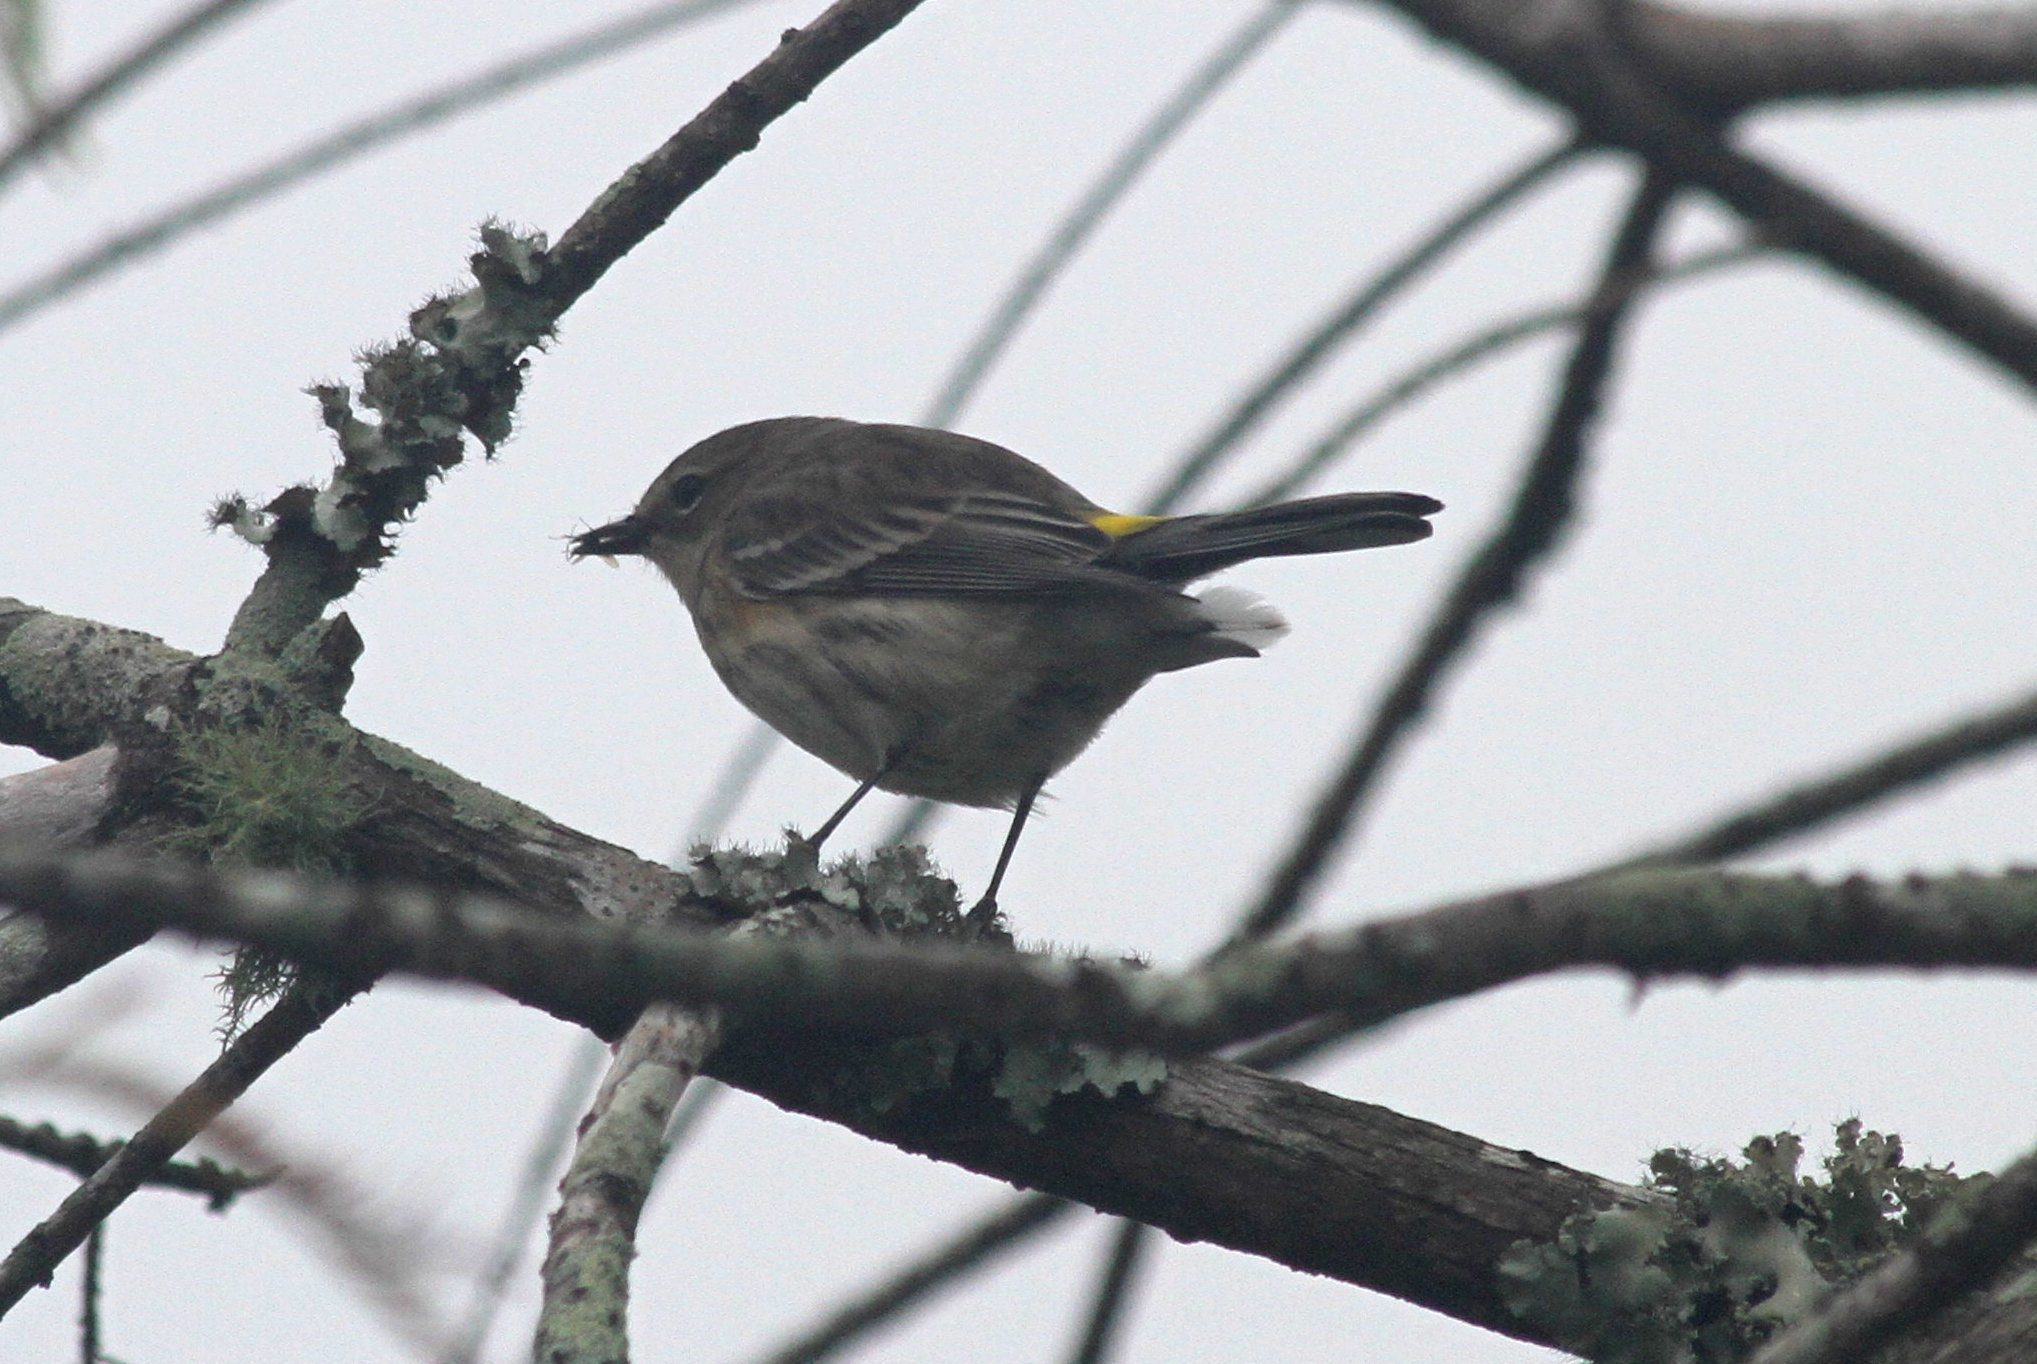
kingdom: Animalia
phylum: Chordata
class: Aves
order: Passeriformes
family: Parulidae
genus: Setophaga
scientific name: Setophaga coronata
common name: Myrtle warbler
